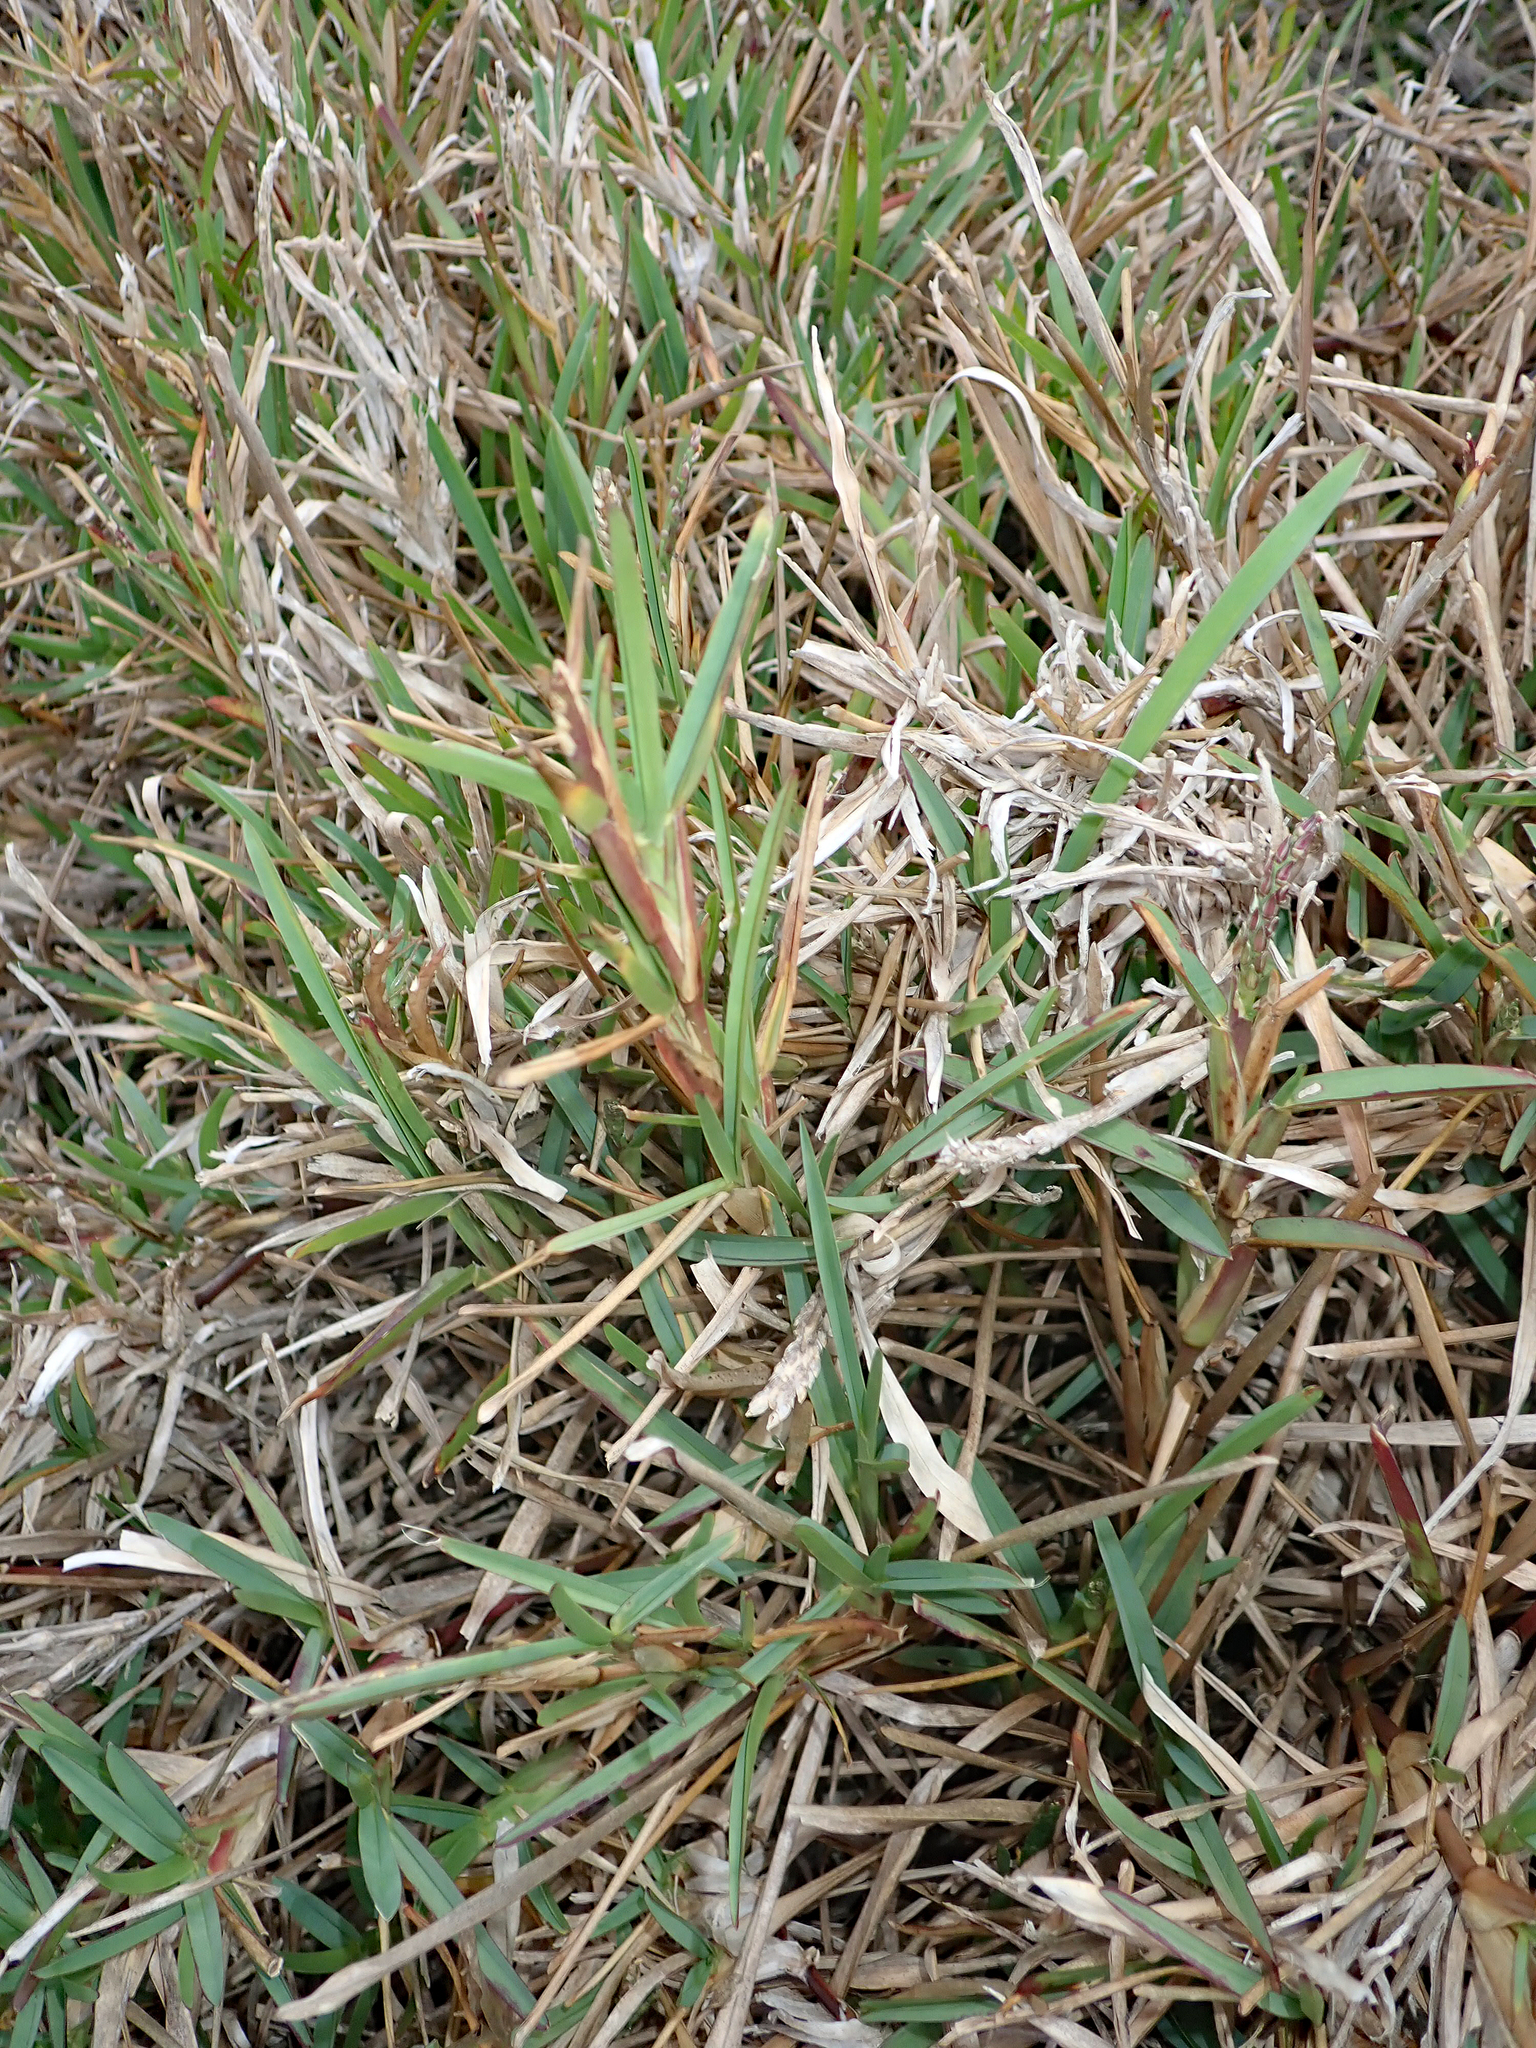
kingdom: Plantae
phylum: Tracheophyta
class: Liliopsida
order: Poales
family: Poaceae
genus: Stenotaphrum
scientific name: Stenotaphrum secundatum
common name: St. augustine grass
